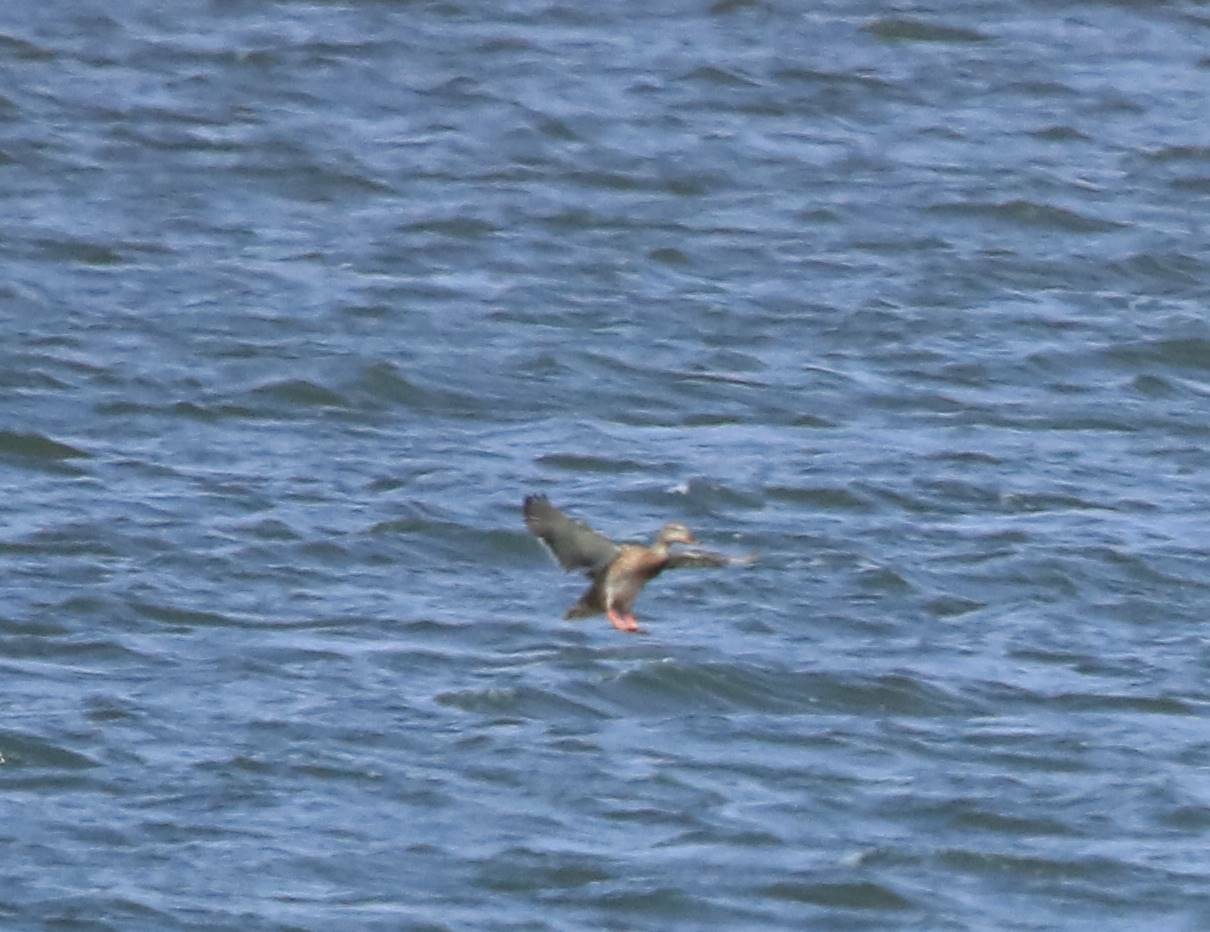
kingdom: Animalia
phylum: Chordata
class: Aves
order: Anseriformes
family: Anatidae
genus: Anas
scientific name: Anas platyrhynchos
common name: Mallard
